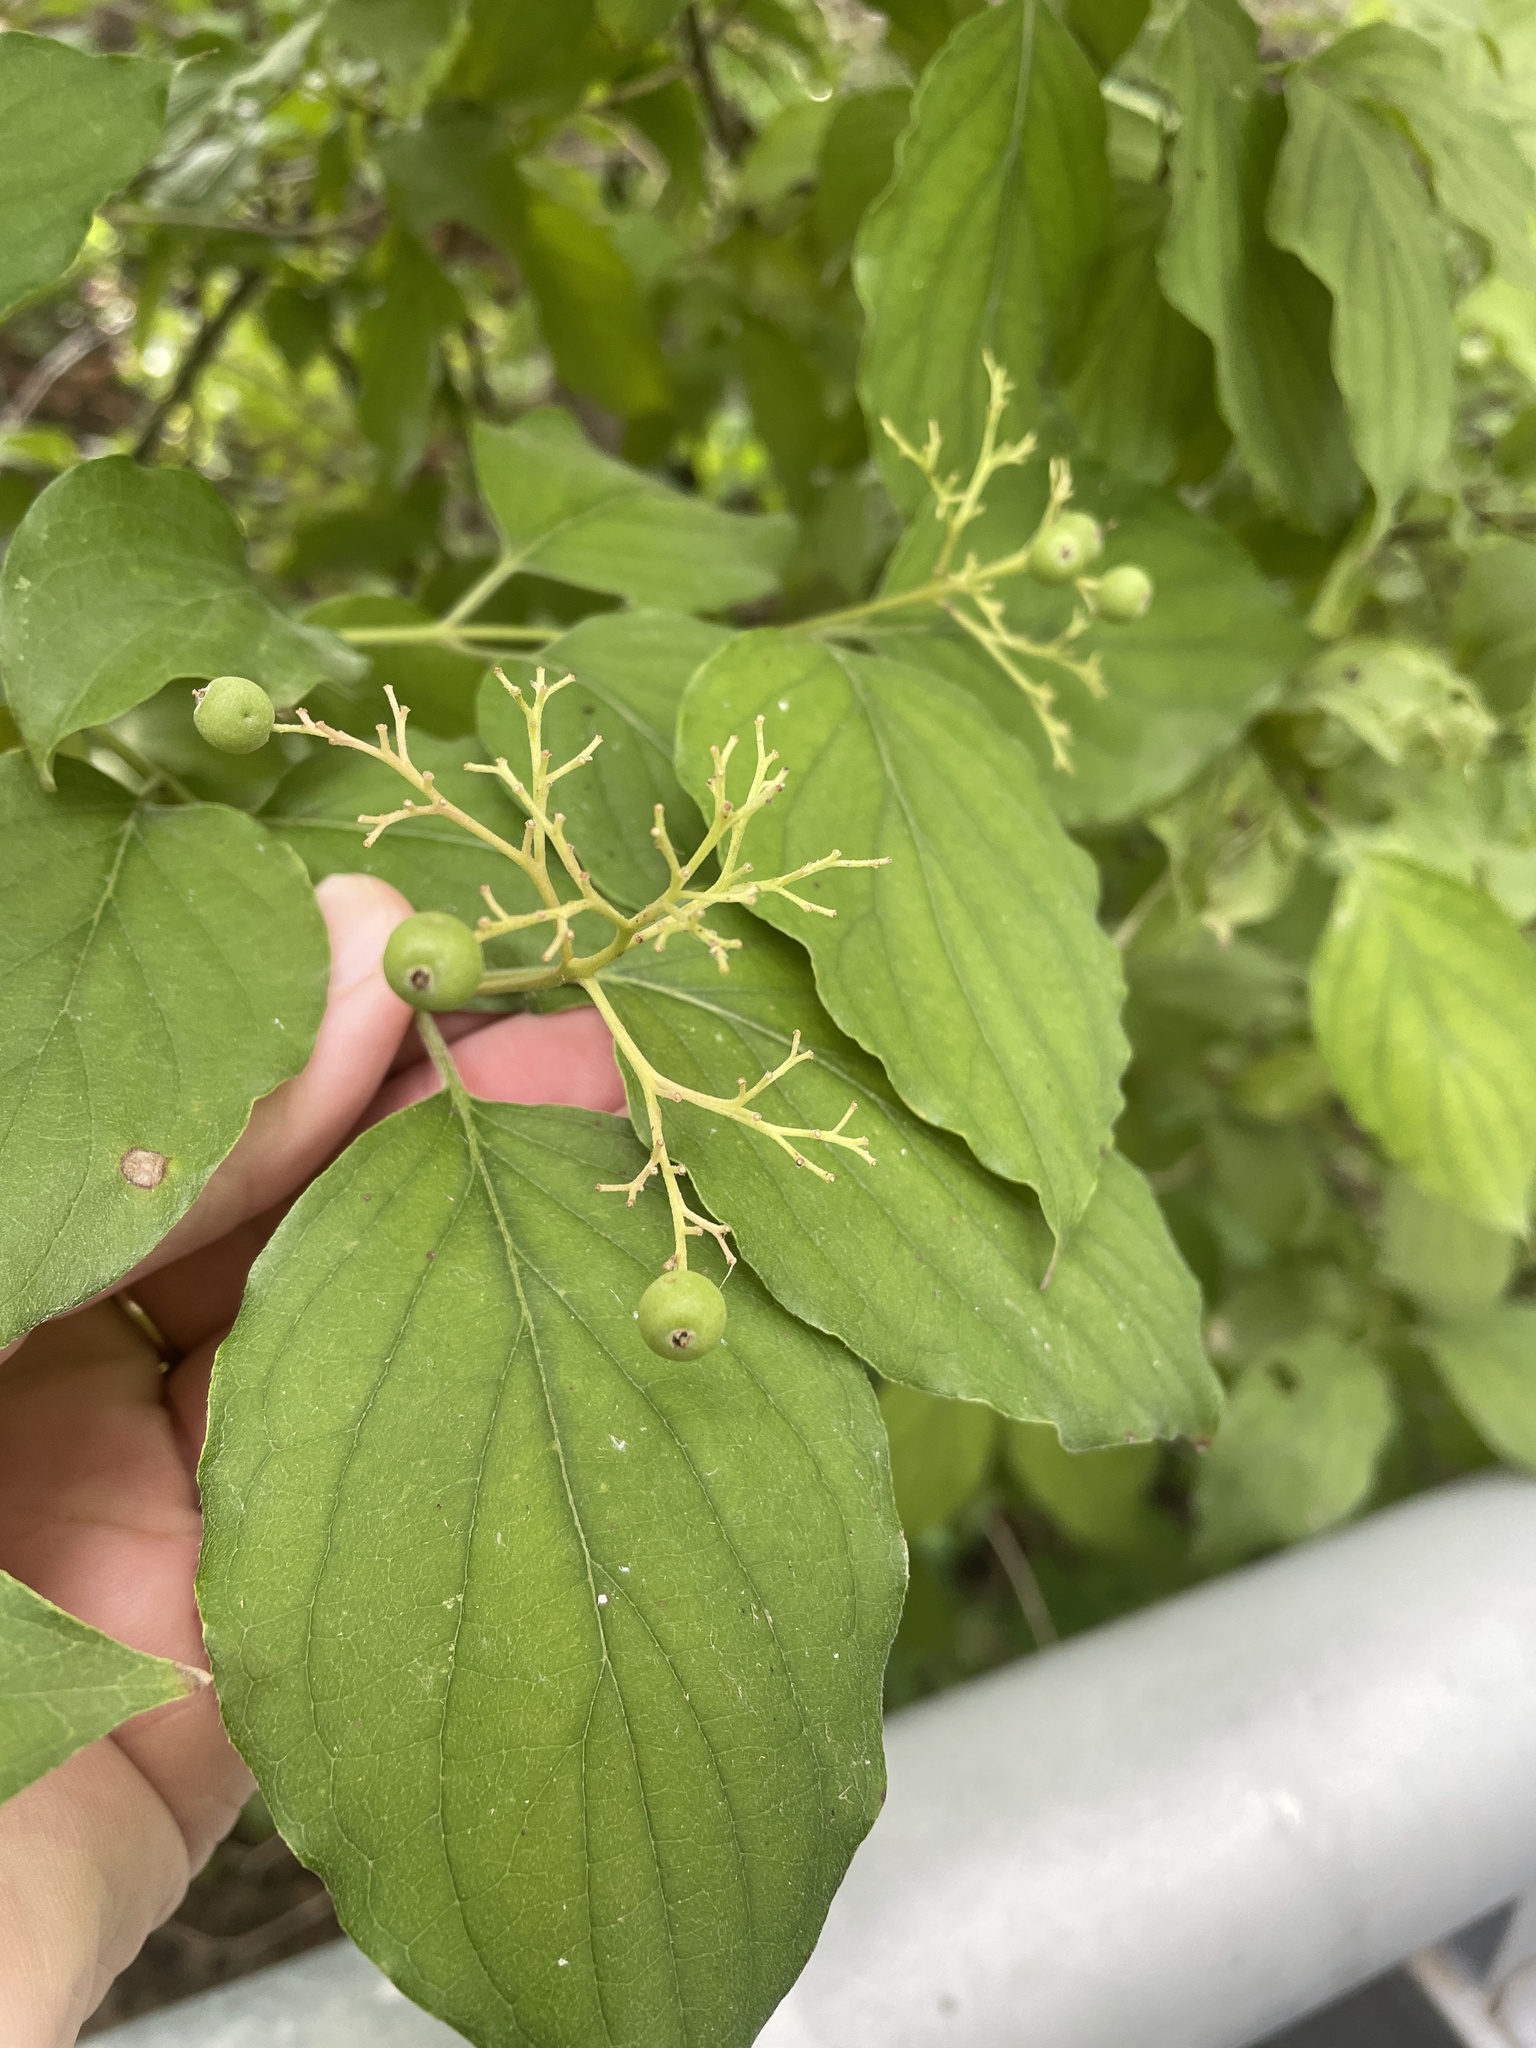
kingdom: Plantae
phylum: Tracheophyta
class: Magnoliopsida
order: Cornales
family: Cornaceae
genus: Cornus
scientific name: Cornus drummondii
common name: Rough-leaf dogwood
